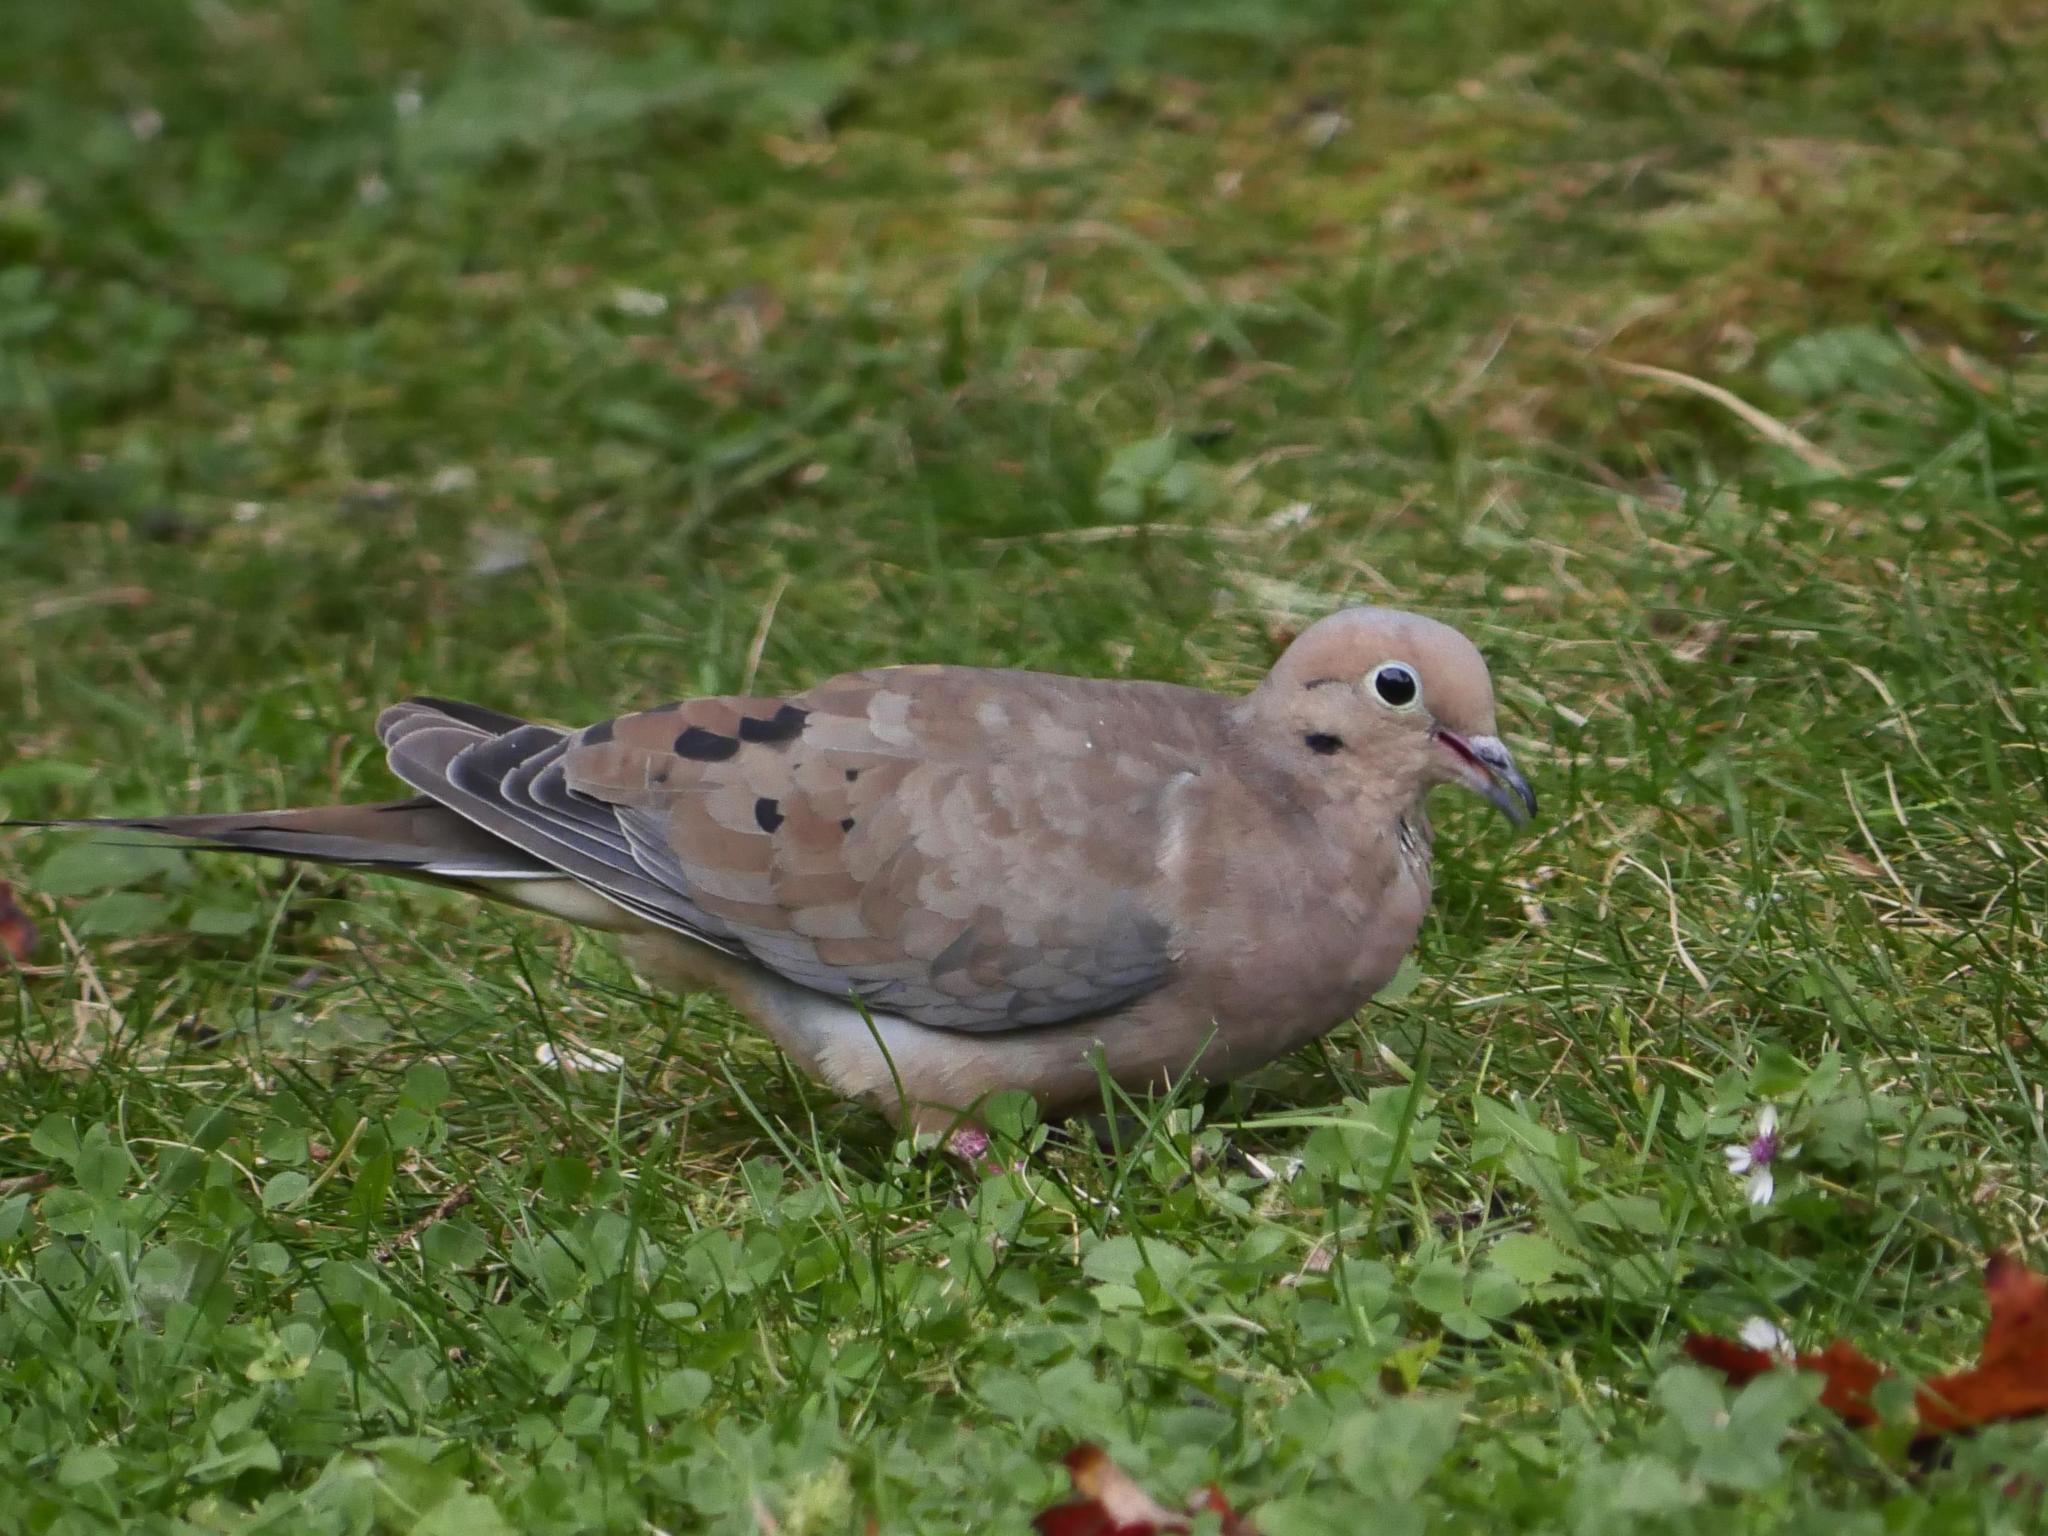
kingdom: Animalia
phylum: Chordata
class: Aves
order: Columbiformes
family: Columbidae
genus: Zenaida
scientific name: Zenaida macroura
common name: Mourning dove
